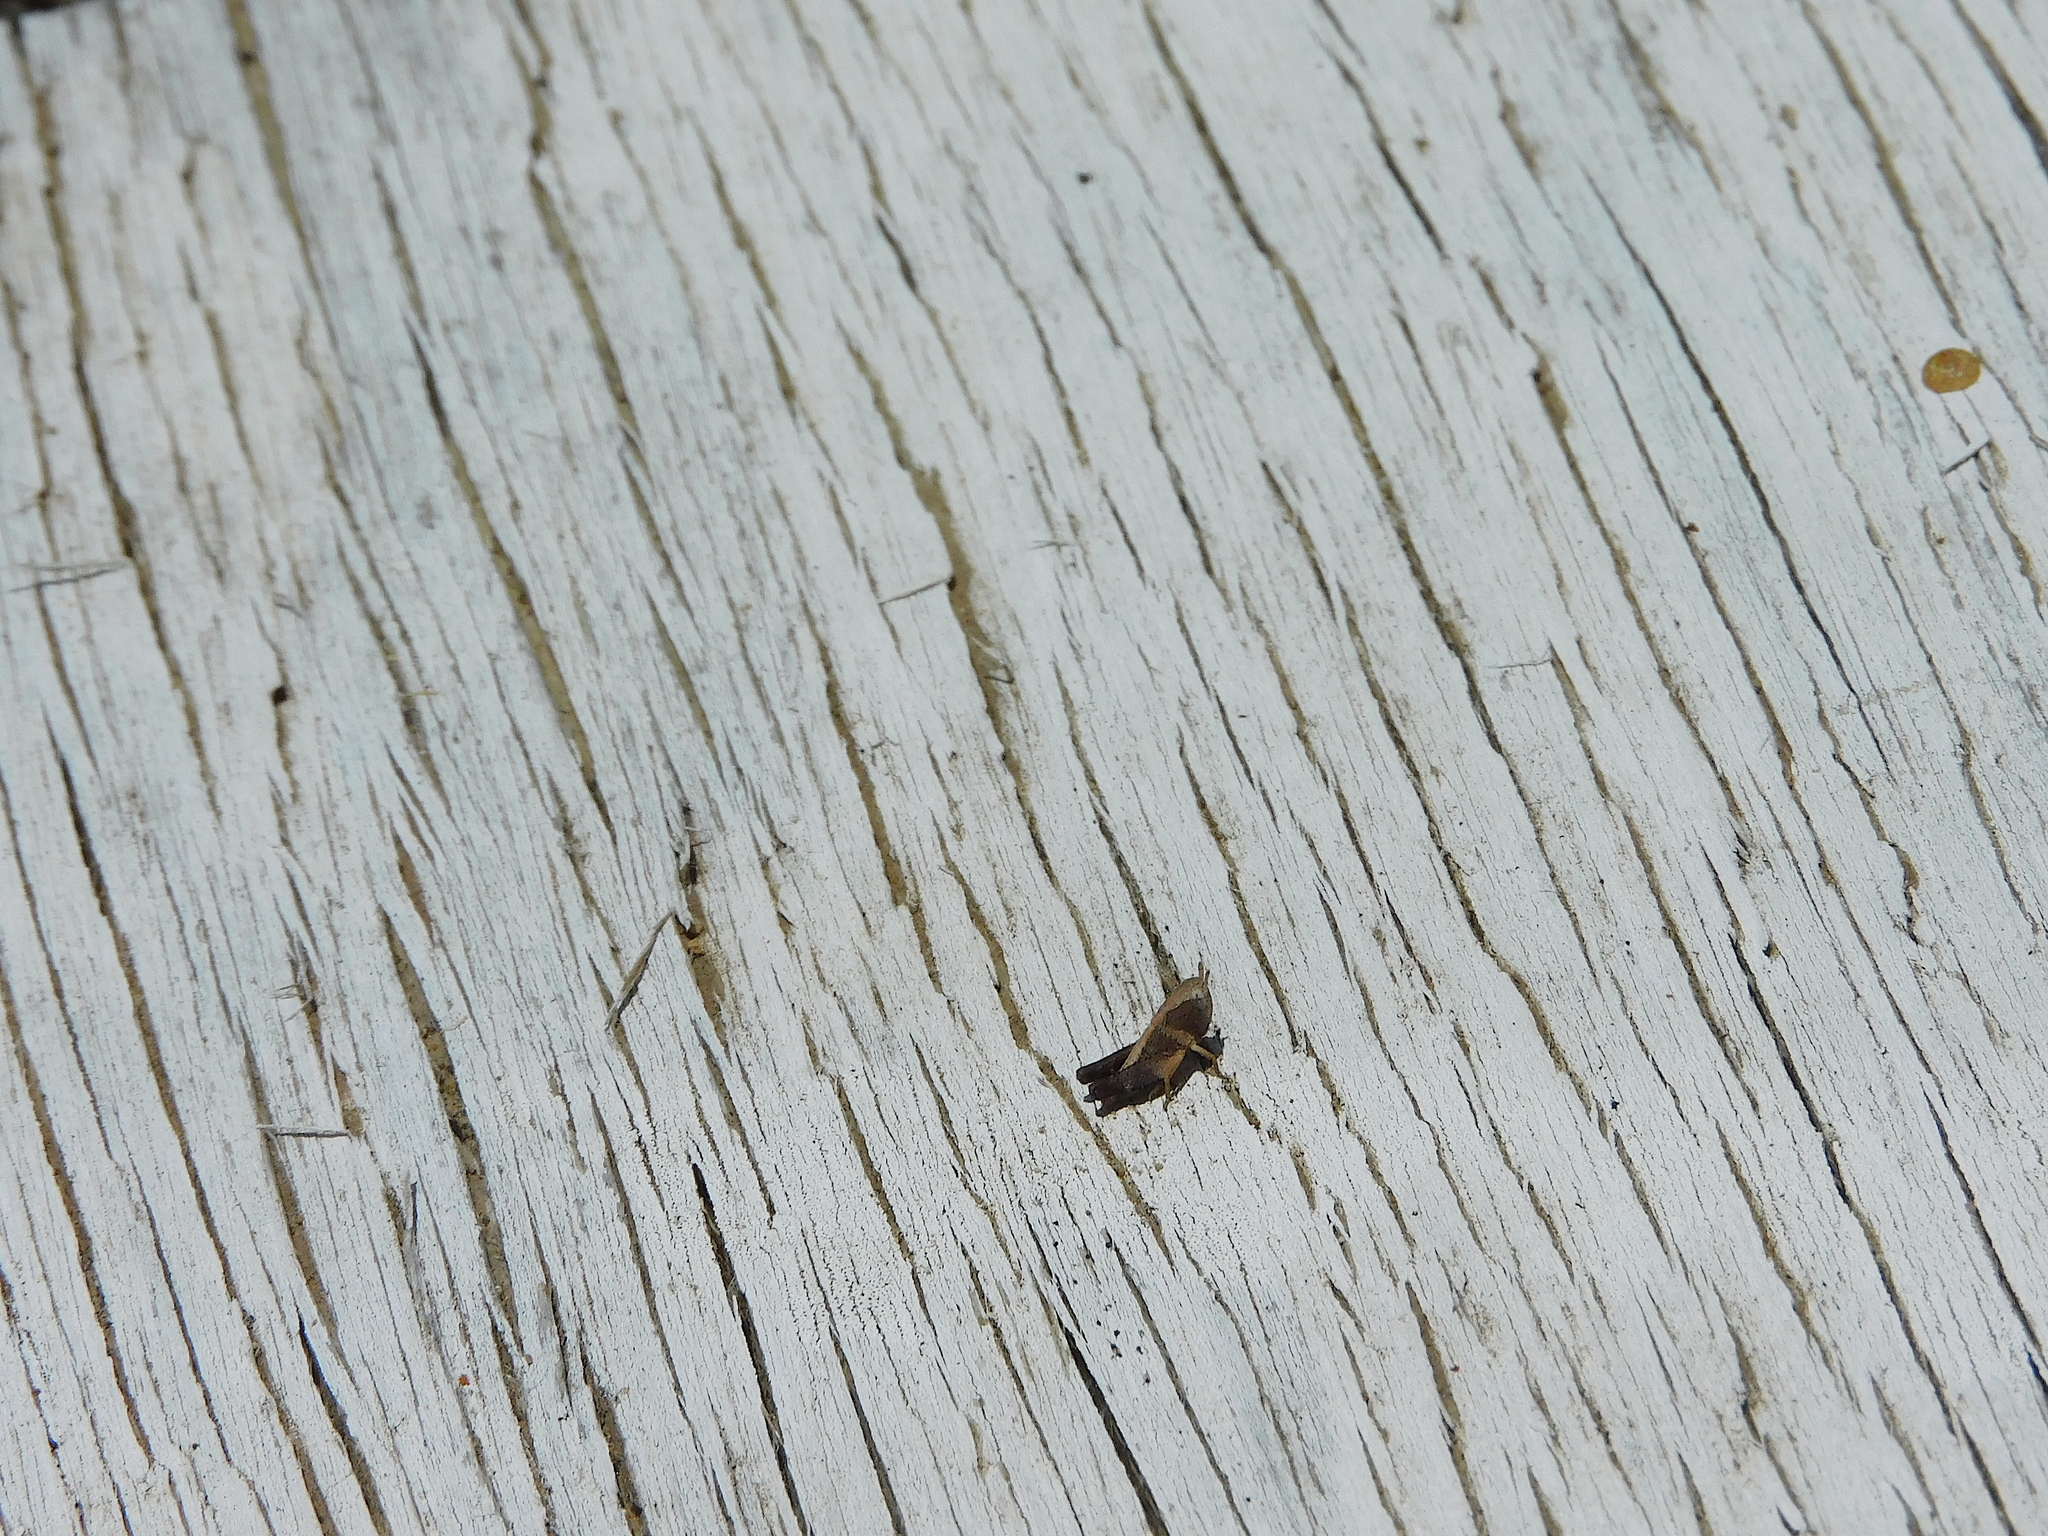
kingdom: Animalia
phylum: Arthropoda
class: Insecta
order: Orthoptera
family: Acrididae
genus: Cryptobothrus
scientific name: Cryptobothrus chrysophorus
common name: Golden bandwing
